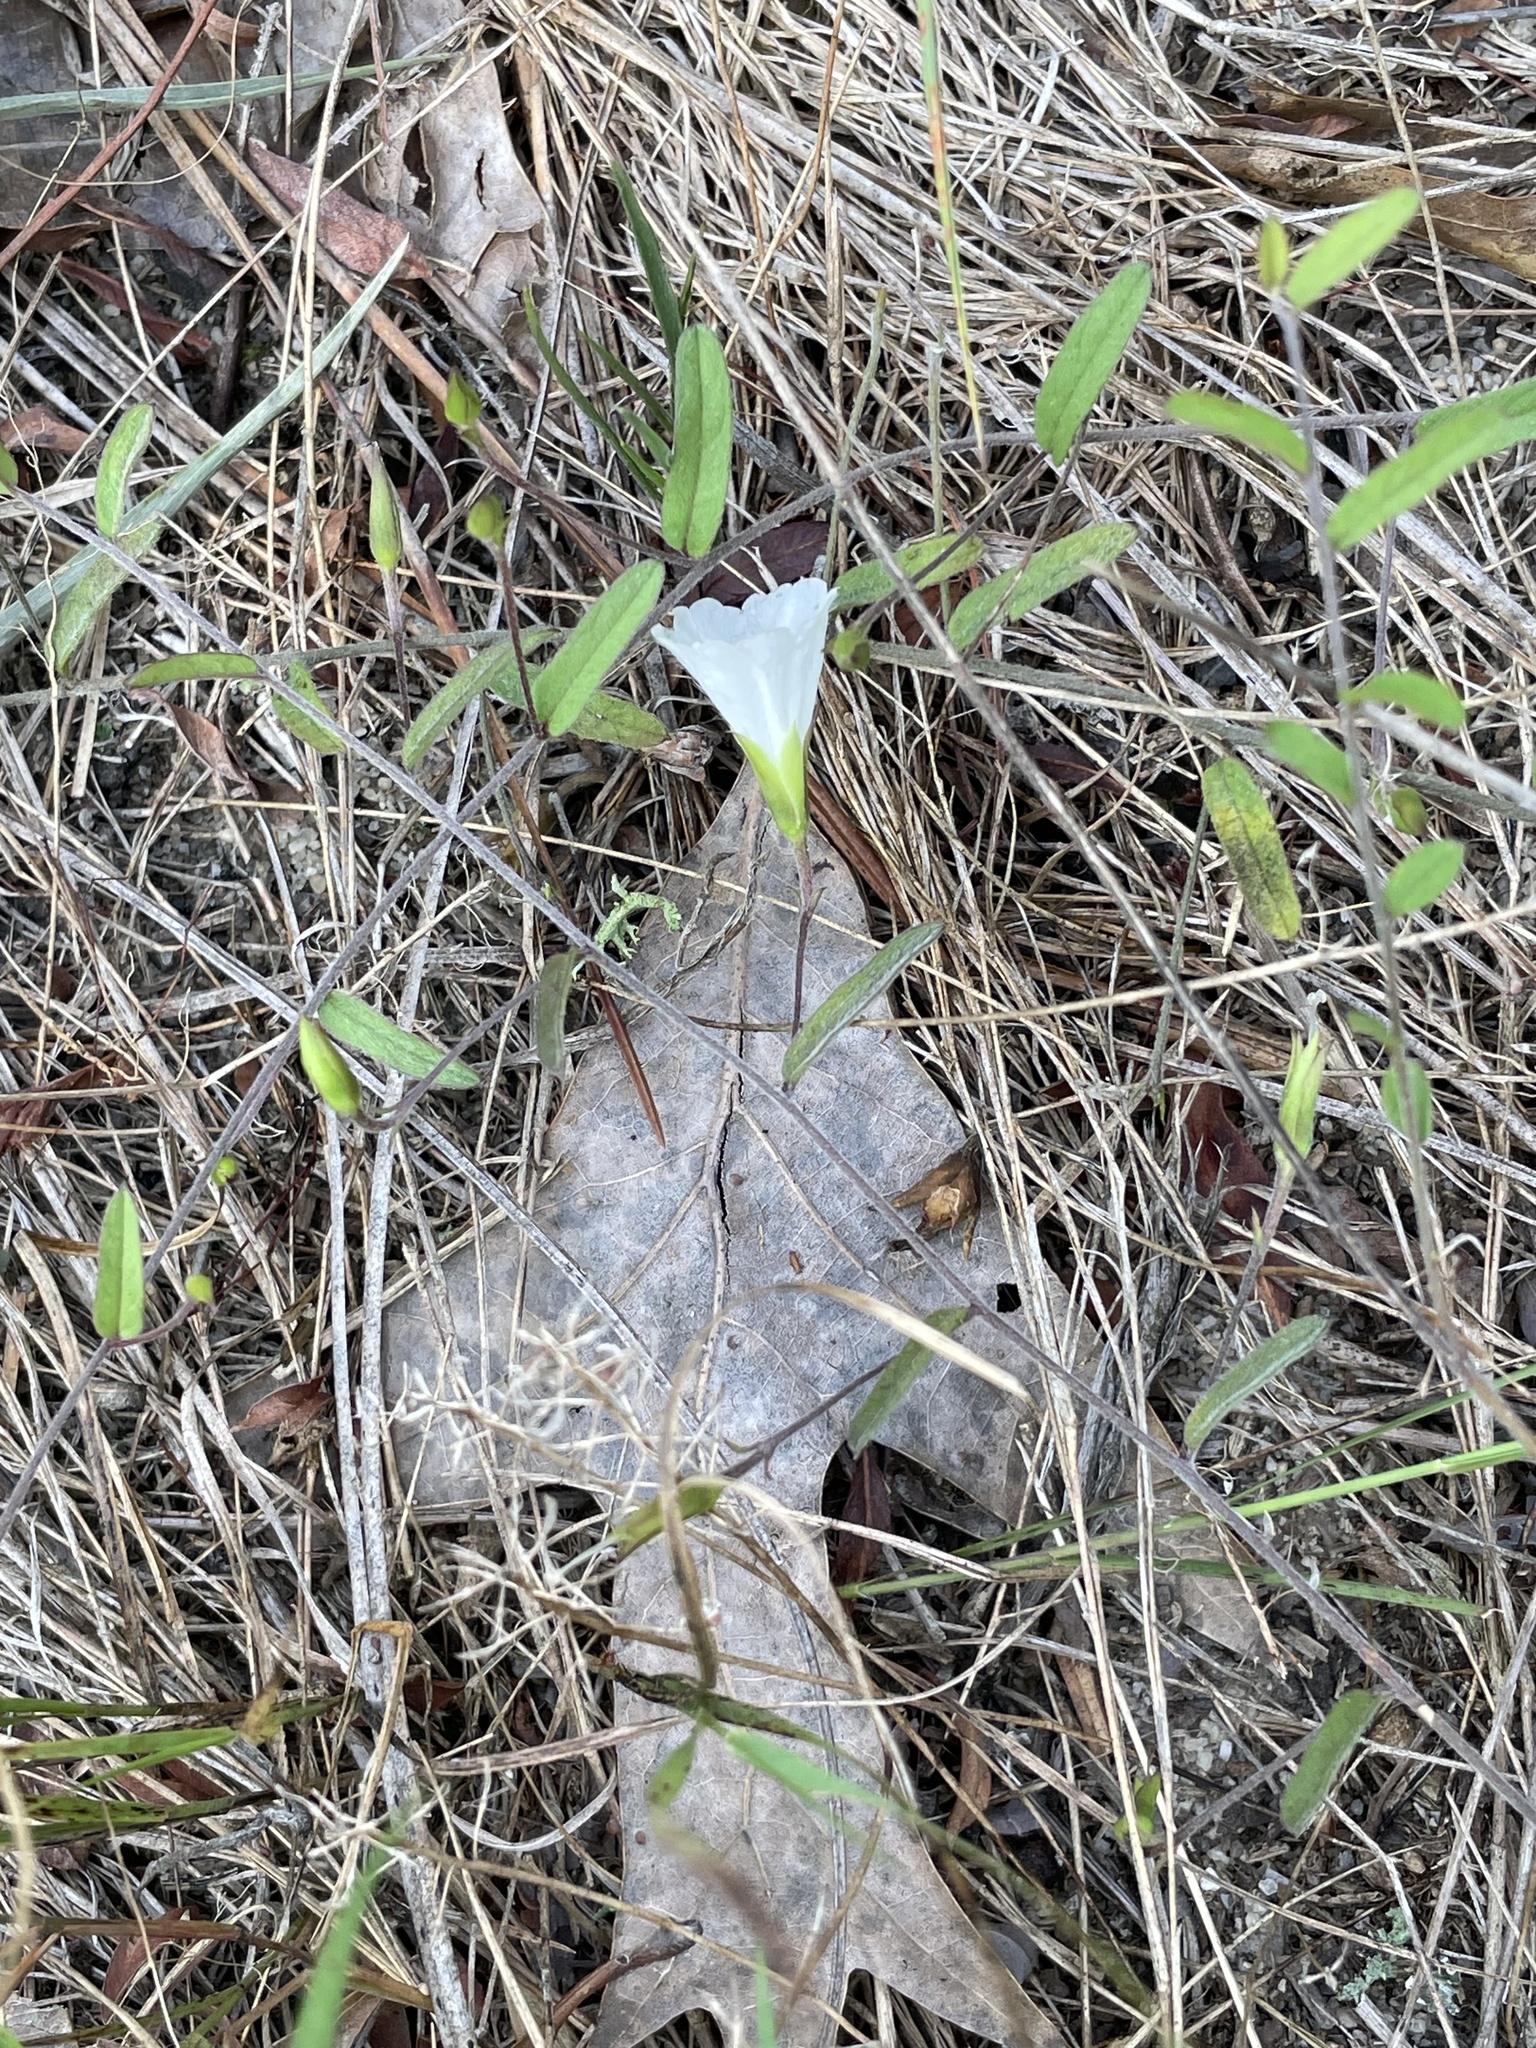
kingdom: Plantae
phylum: Tracheophyta
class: Magnoliopsida
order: Solanales
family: Convolvulaceae
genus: Stylisma
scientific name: Stylisma patens
